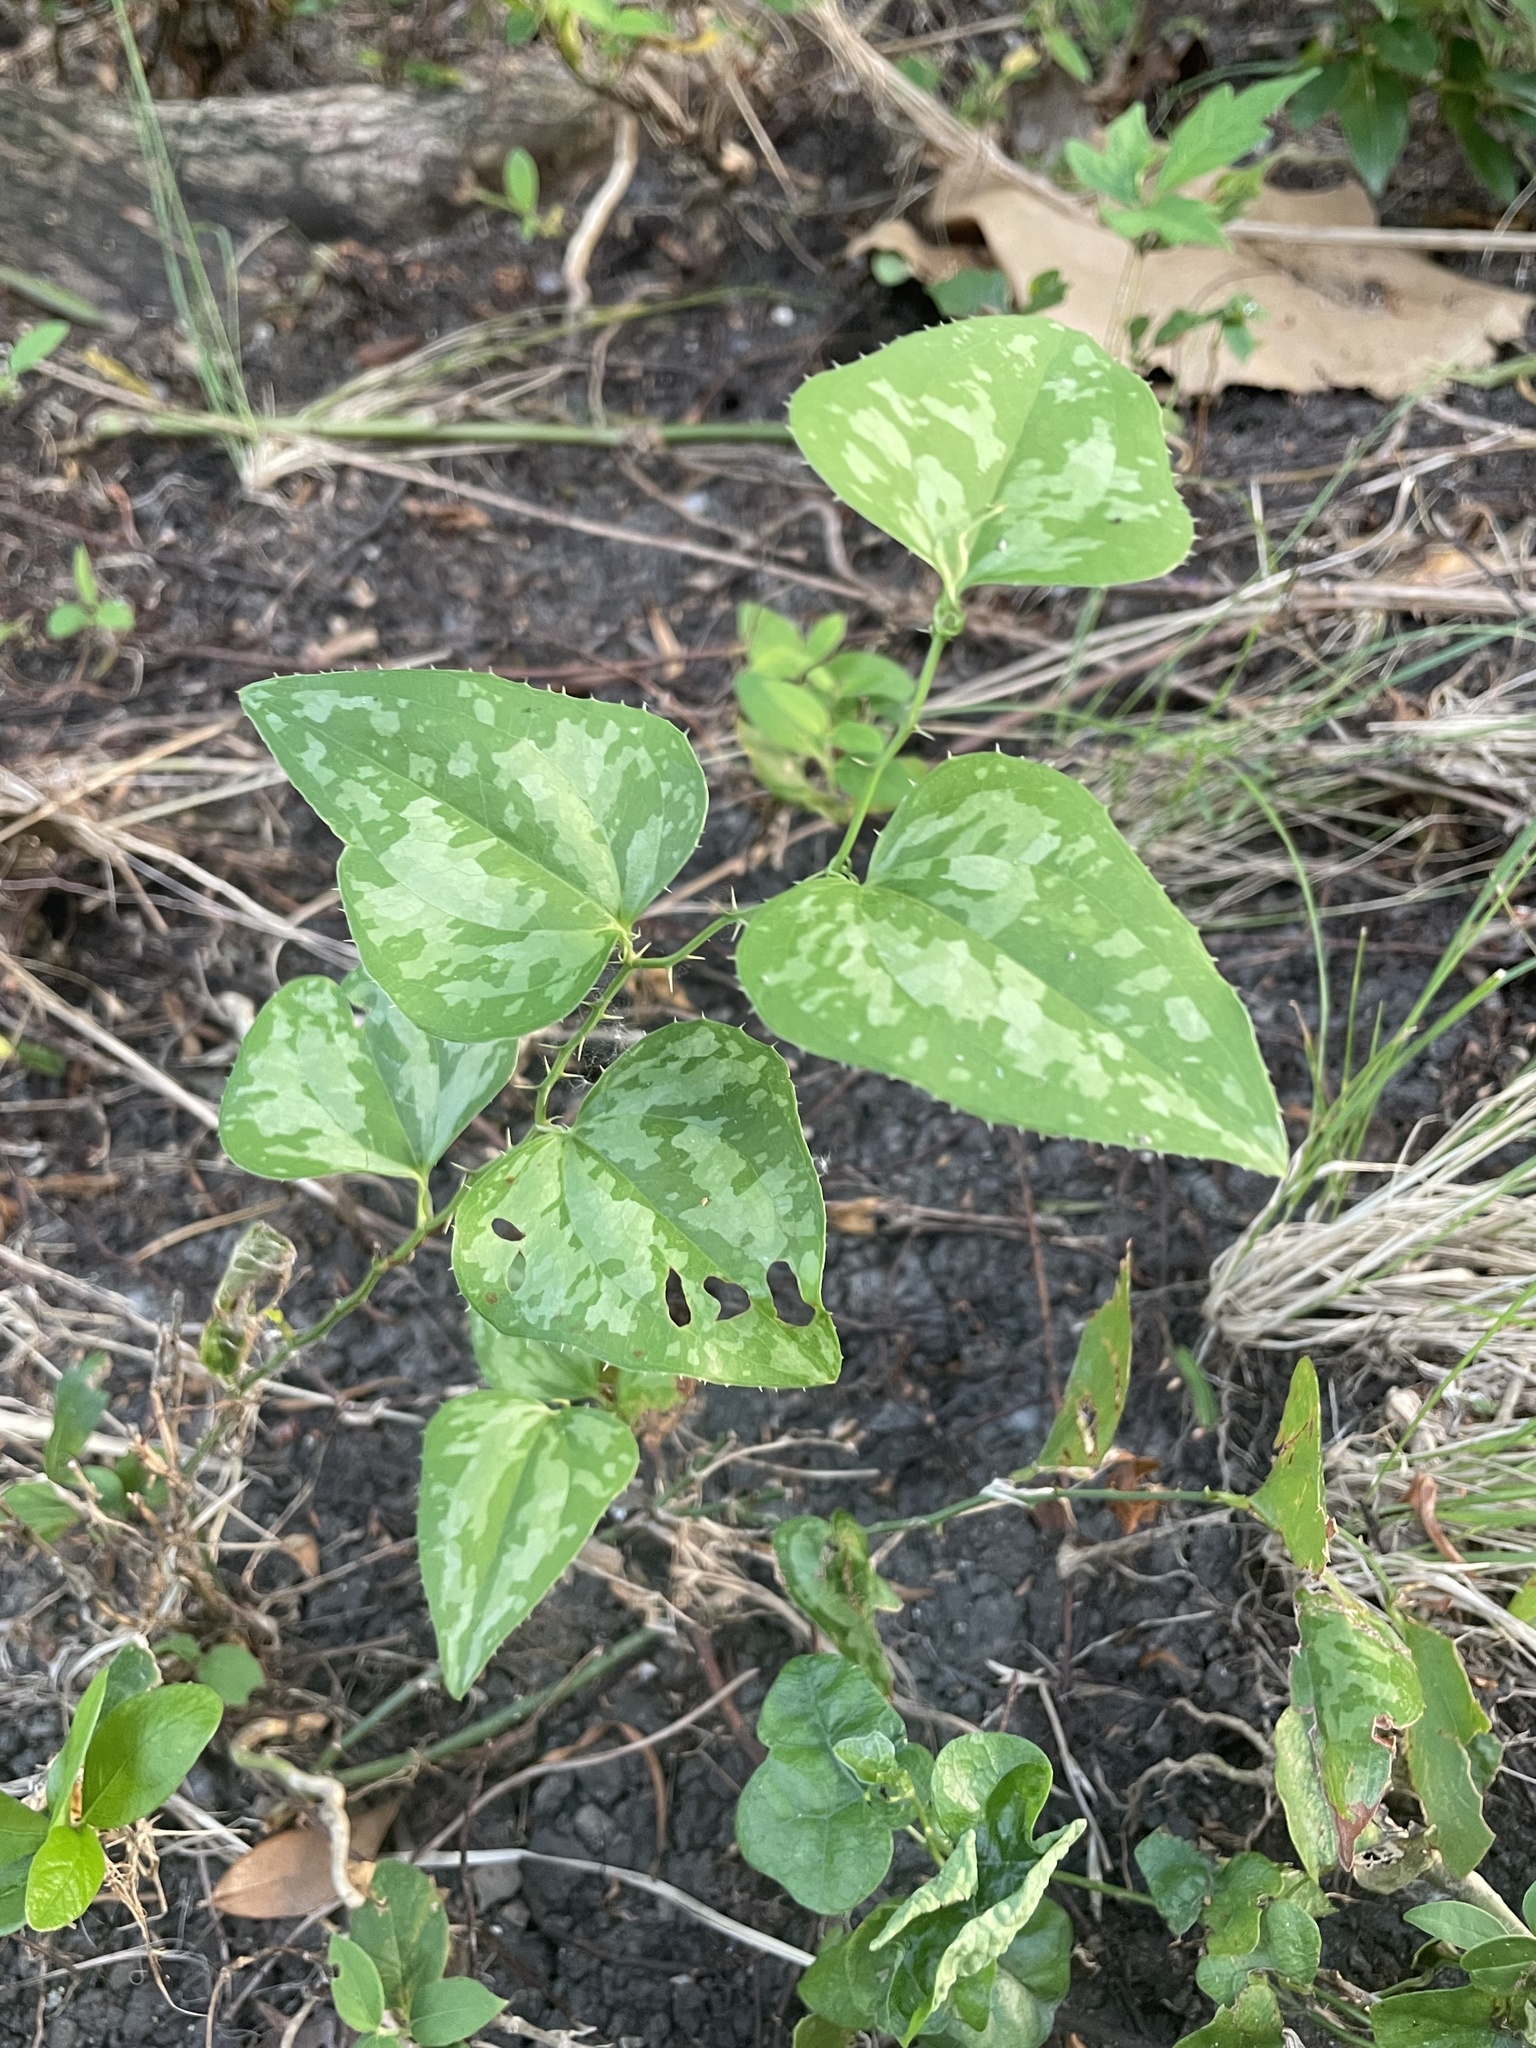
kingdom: Plantae
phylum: Tracheophyta
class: Liliopsida
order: Liliales
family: Smilacaceae
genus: Smilax
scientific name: Smilax bona-nox
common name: Catbrier
